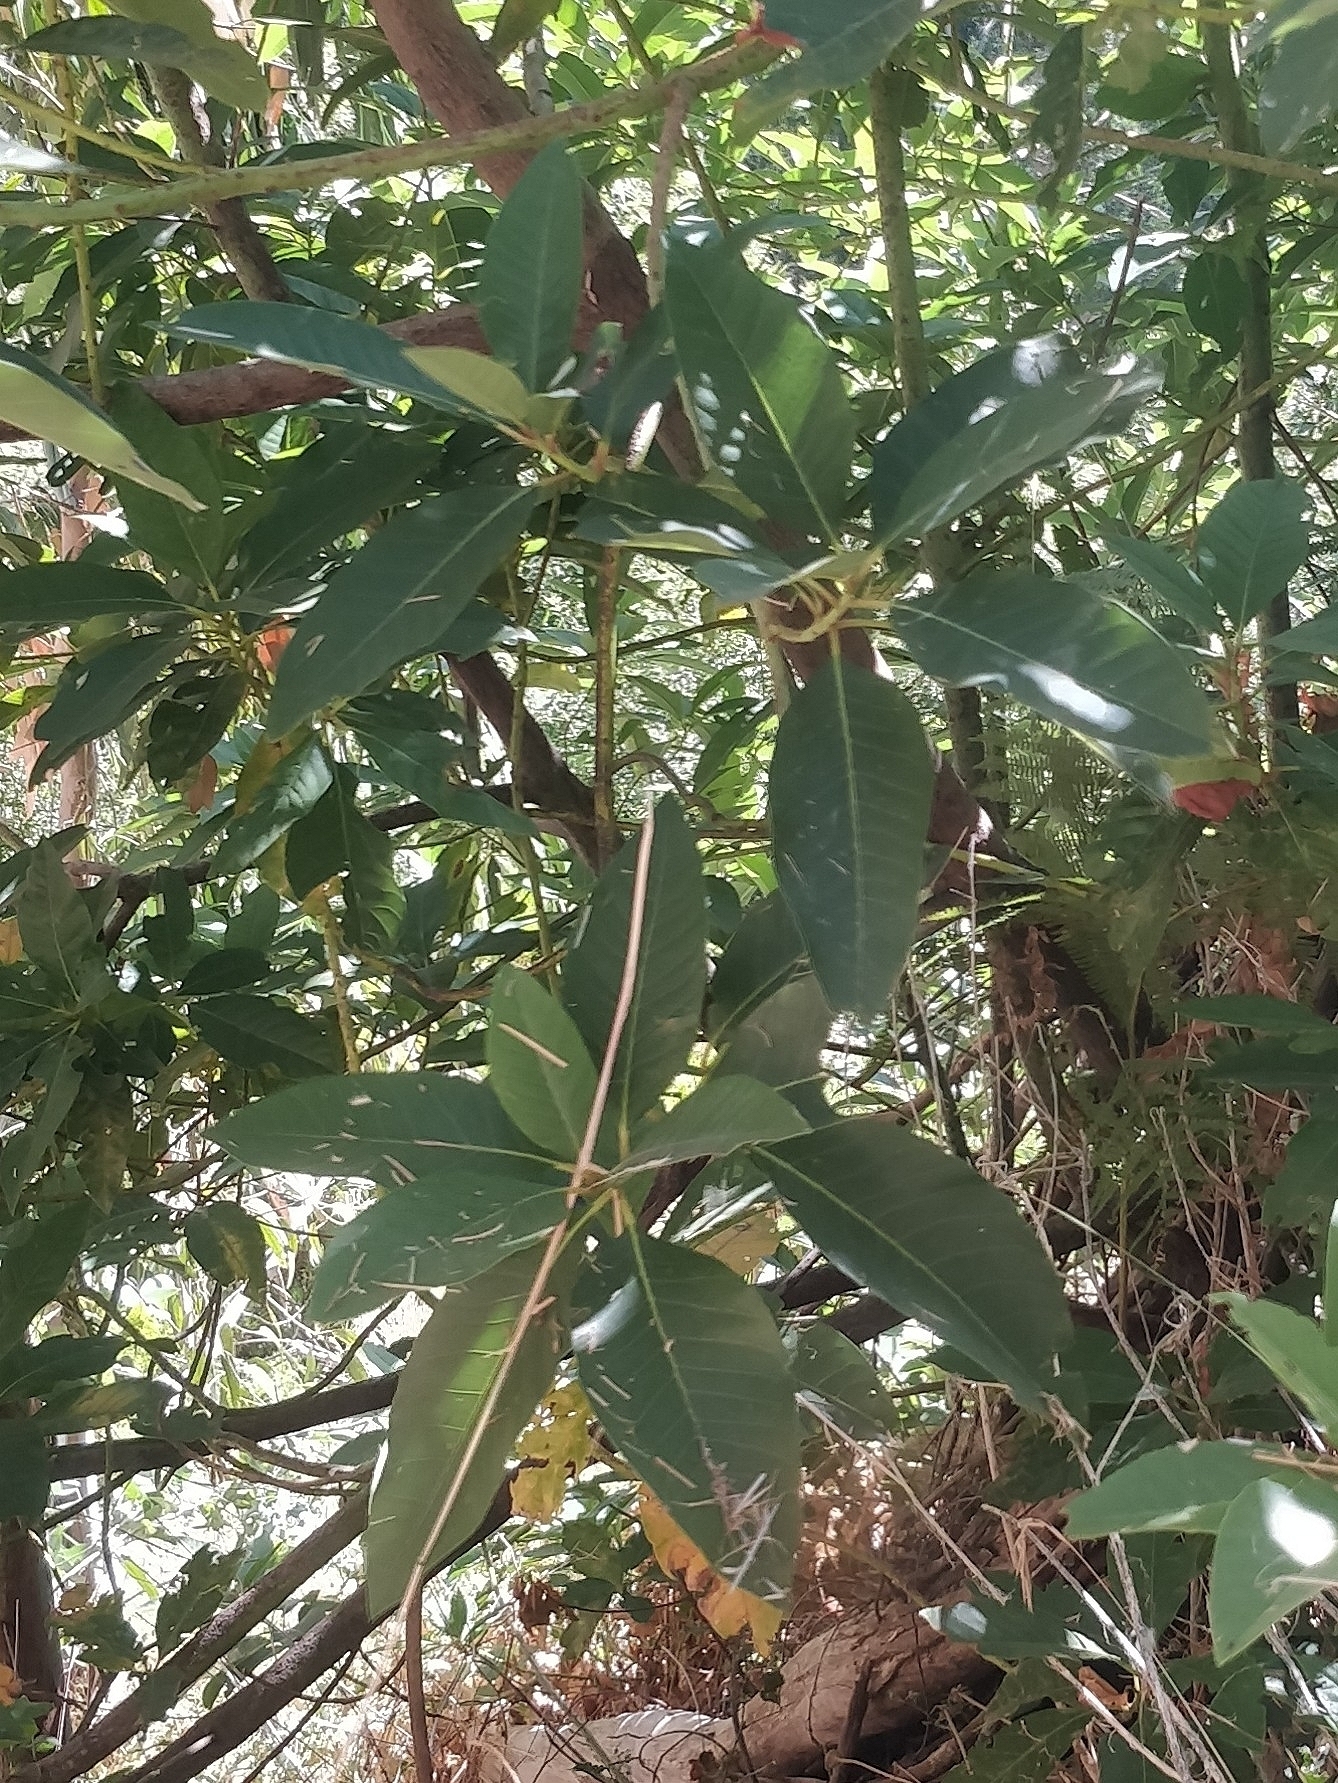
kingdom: Plantae
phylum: Tracheophyta
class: Magnoliopsida
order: Laurales
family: Lauraceae
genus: Persea
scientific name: Persea indica
